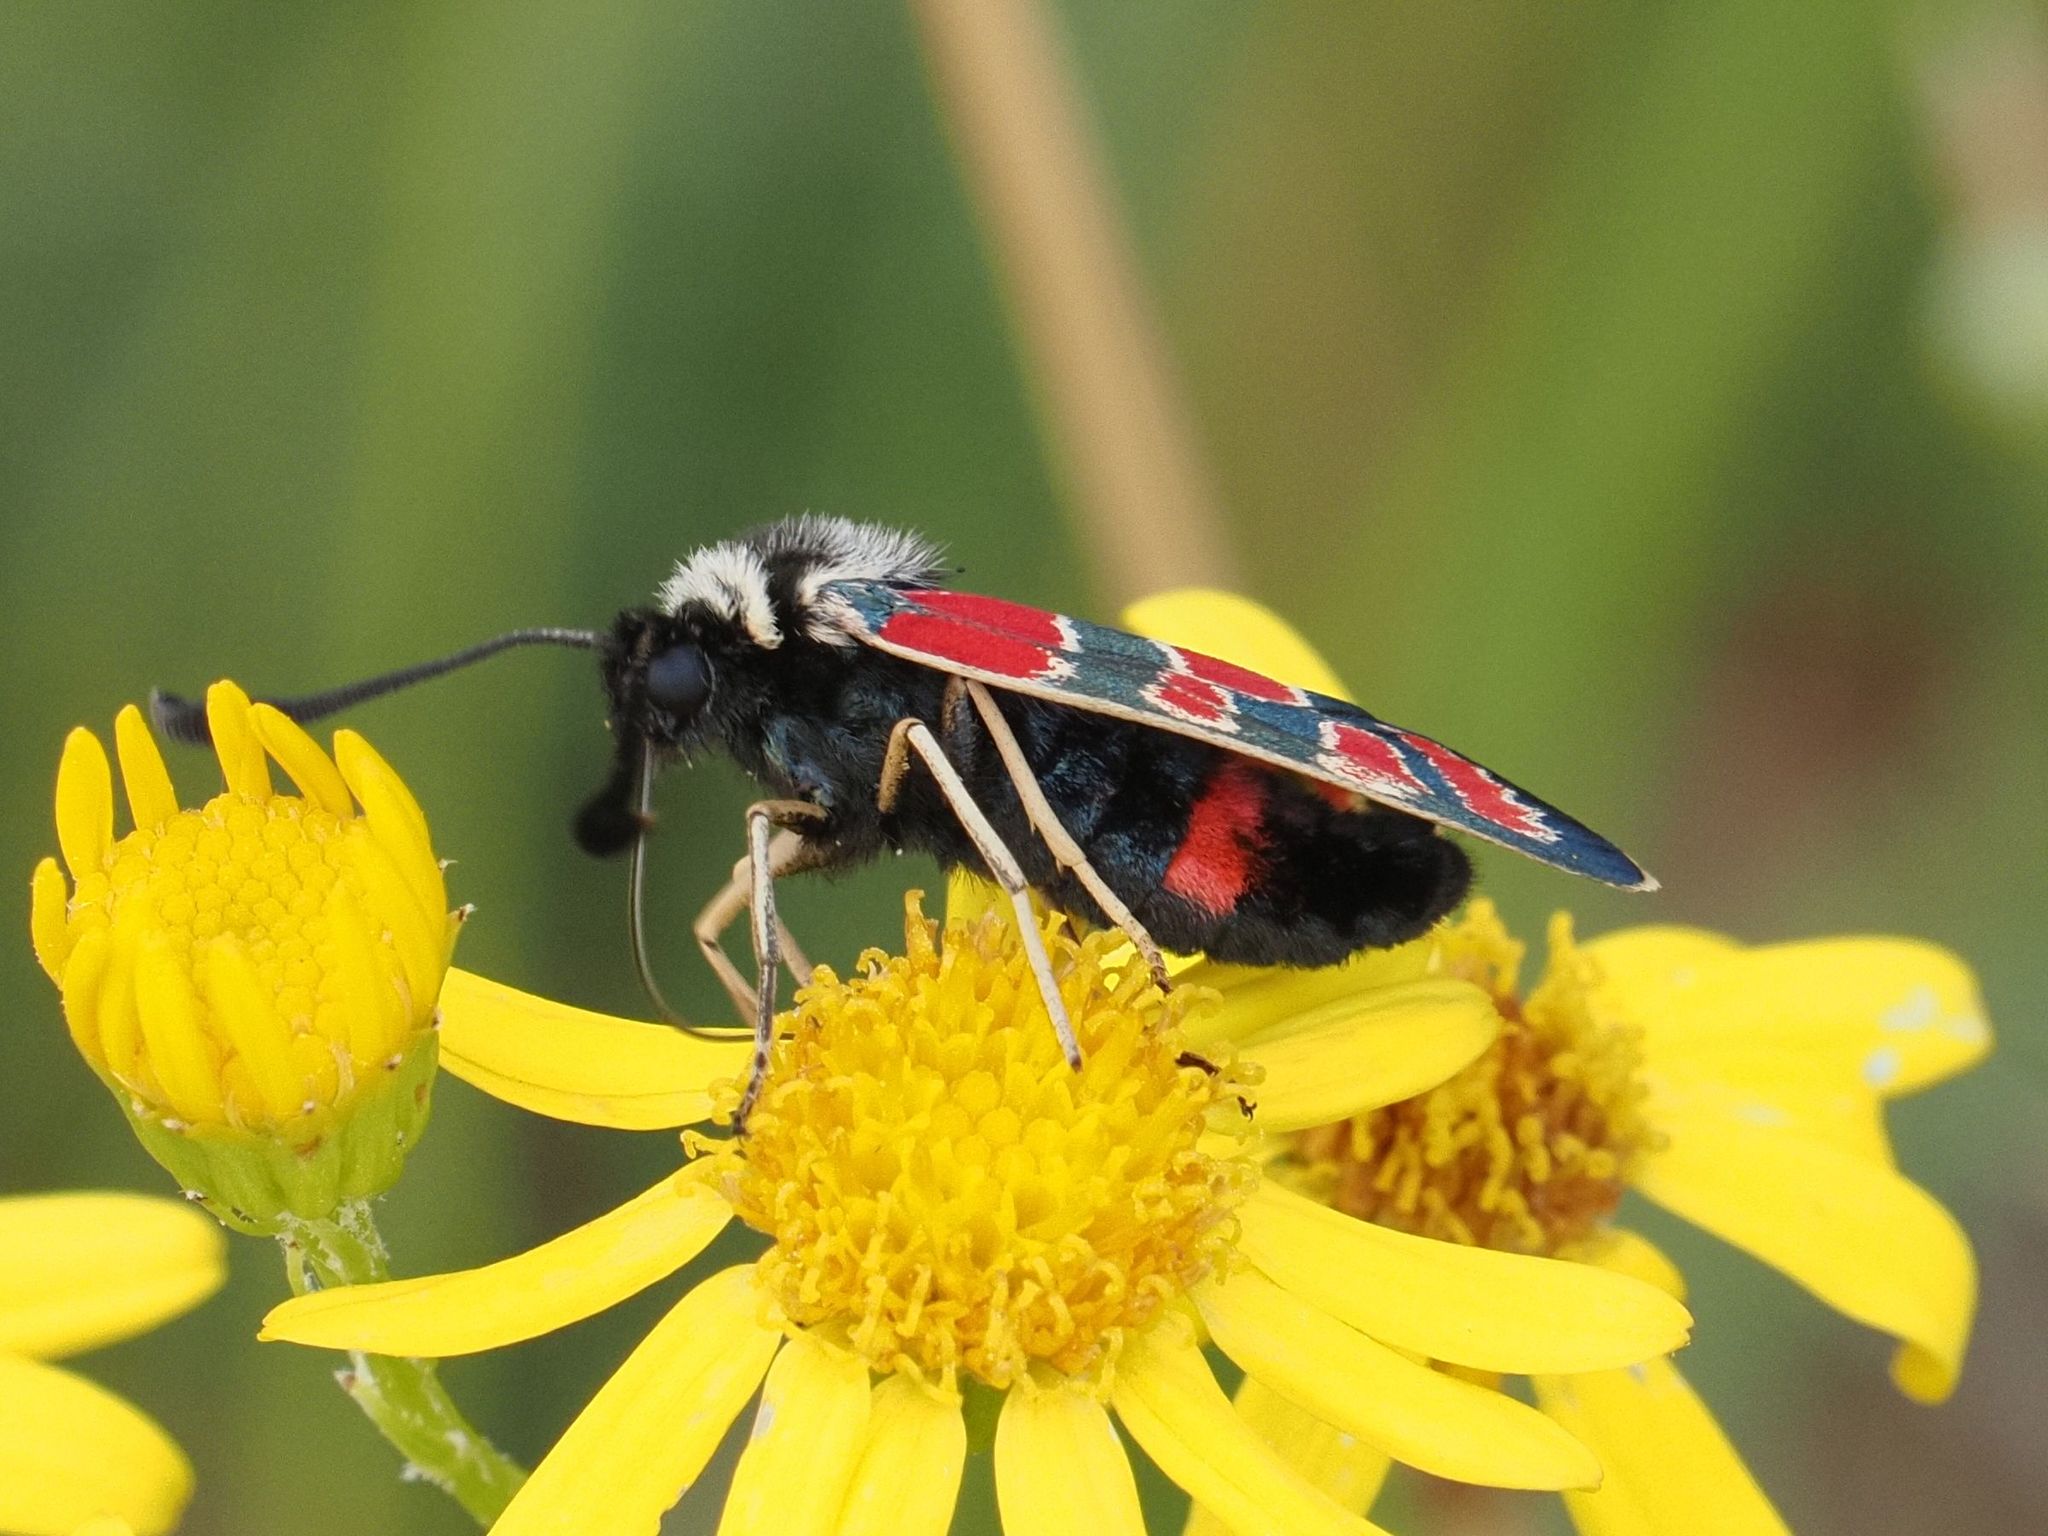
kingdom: Animalia
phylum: Arthropoda
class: Insecta
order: Lepidoptera
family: Zygaenidae
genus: Zygaena
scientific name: Zygaena carniolica
